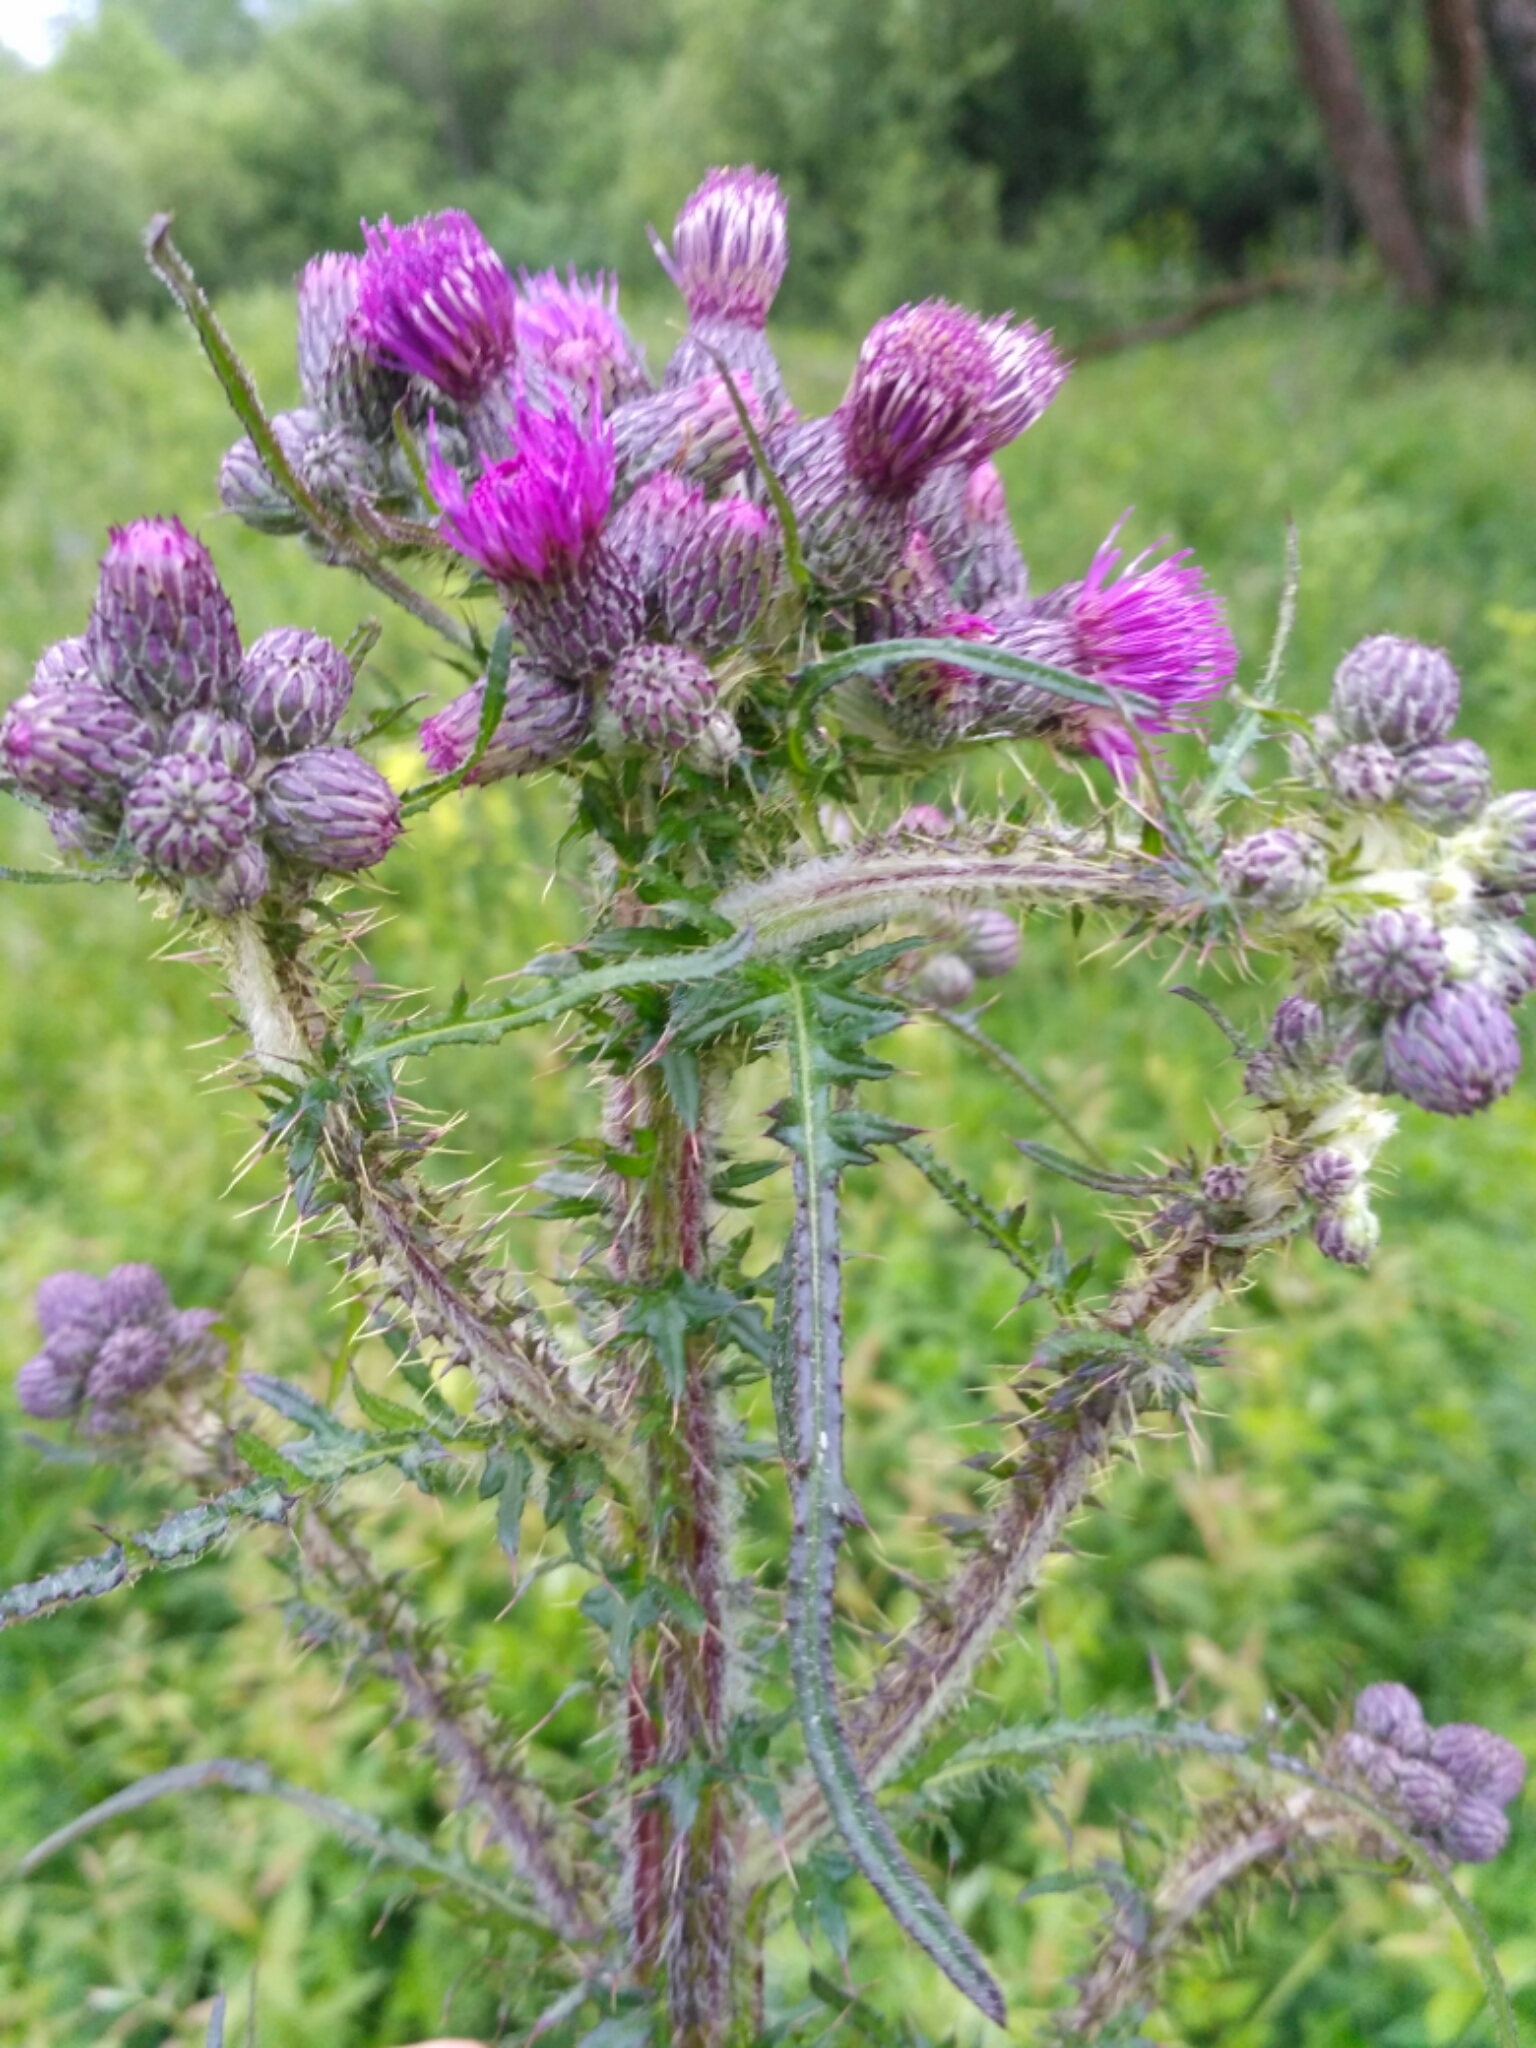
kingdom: Plantae
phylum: Tracheophyta
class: Magnoliopsida
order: Asterales
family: Asteraceae
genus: Cirsium
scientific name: Cirsium palustre
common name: Marsh thistle
